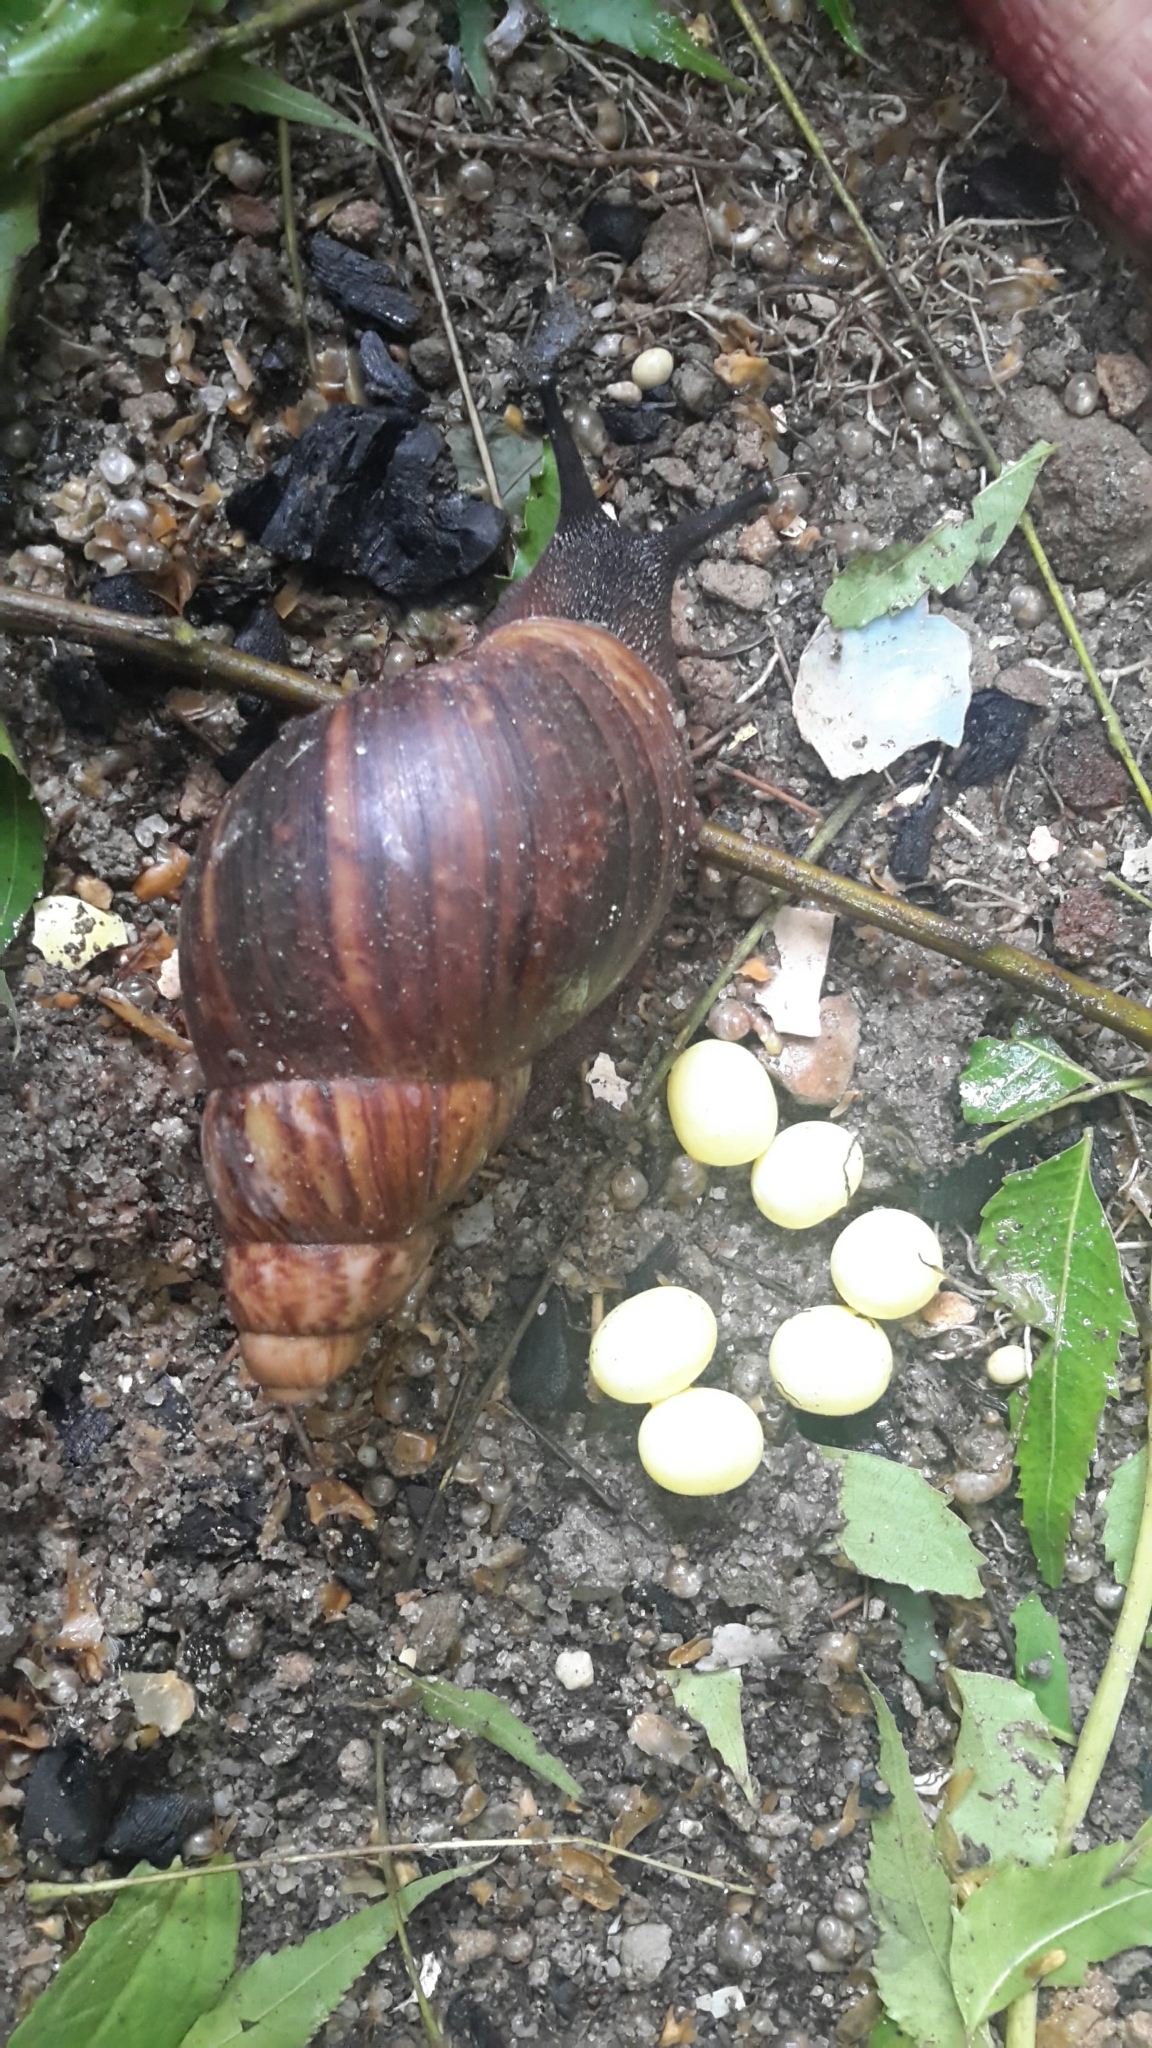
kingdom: Animalia
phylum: Mollusca
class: Gastropoda
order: Stylommatophora
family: Achatinidae
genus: Archachatina
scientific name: Archachatina marginata
